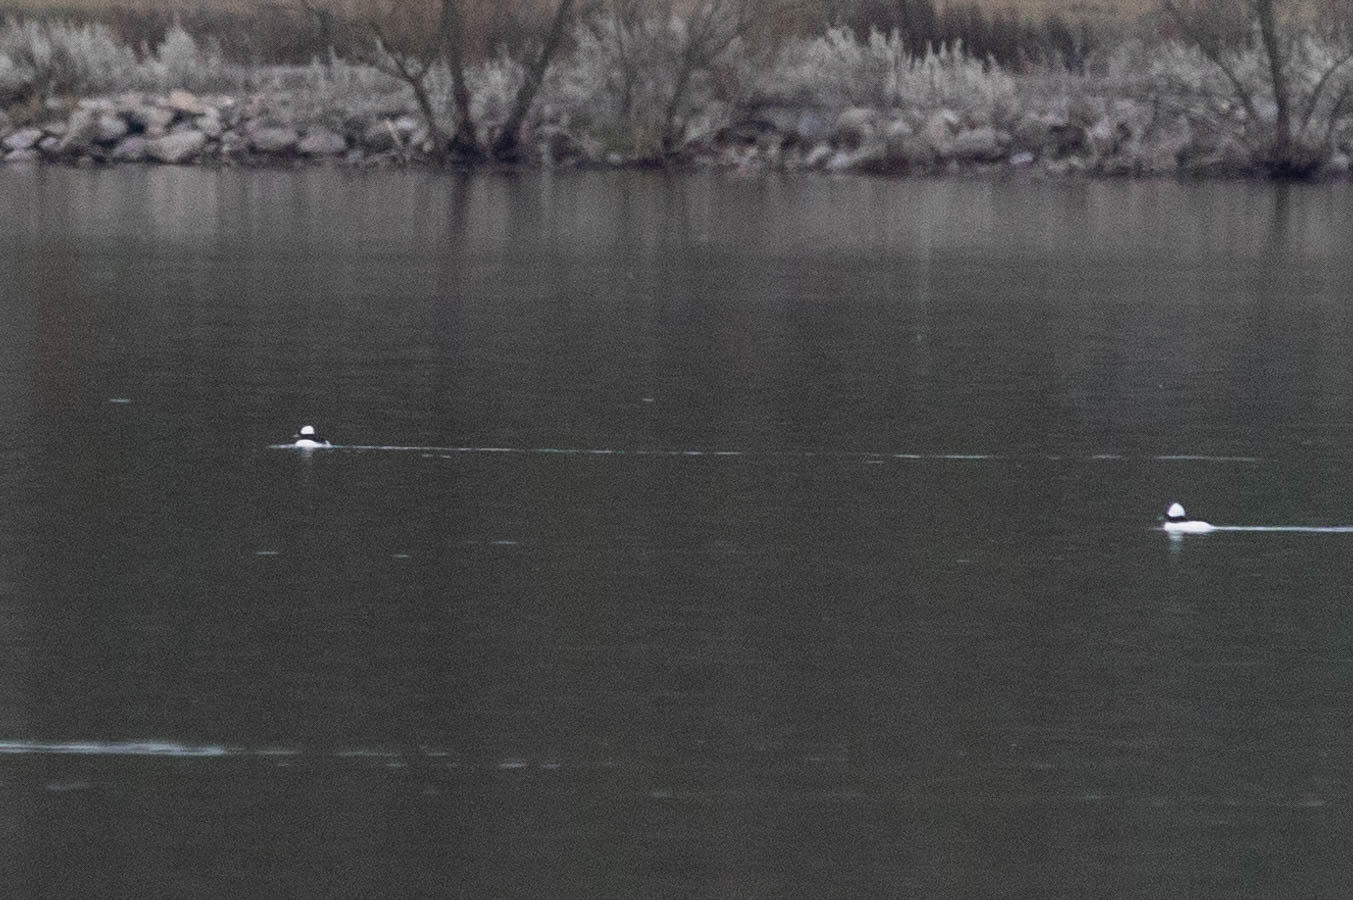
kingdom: Animalia
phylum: Chordata
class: Aves
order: Anseriformes
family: Anatidae
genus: Bucephala
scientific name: Bucephala albeola
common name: Bufflehead
